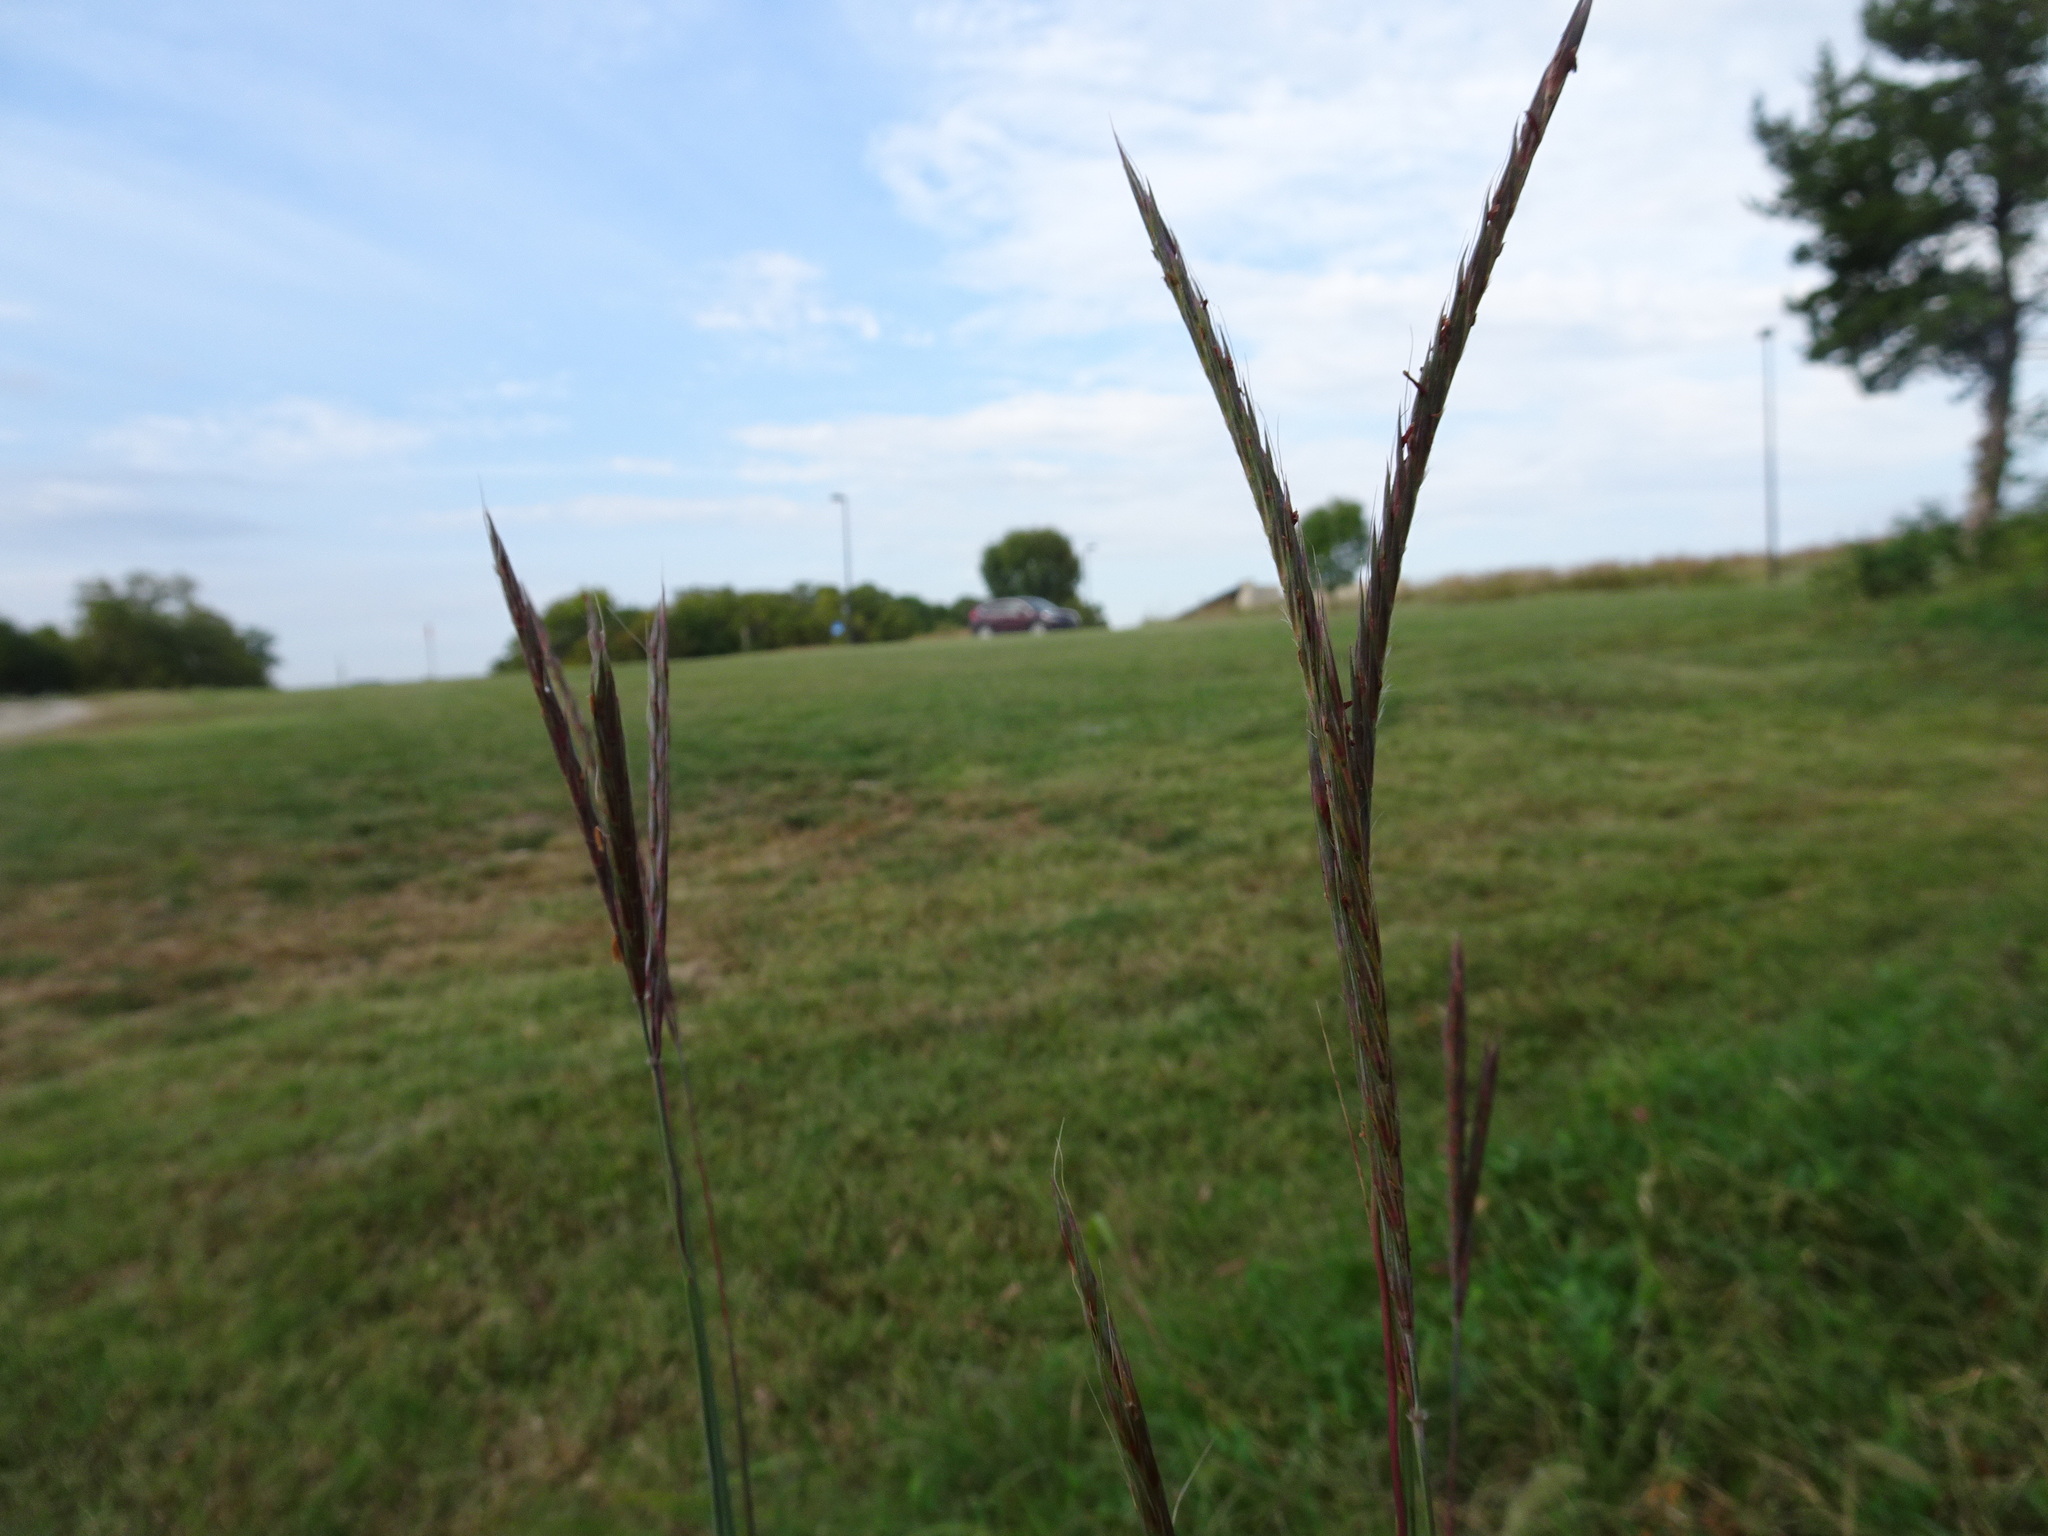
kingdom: Plantae
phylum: Tracheophyta
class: Liliopsida
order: Poales
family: Poaceae
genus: Andropogon
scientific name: Andropogon gerardi
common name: Big bluestem
